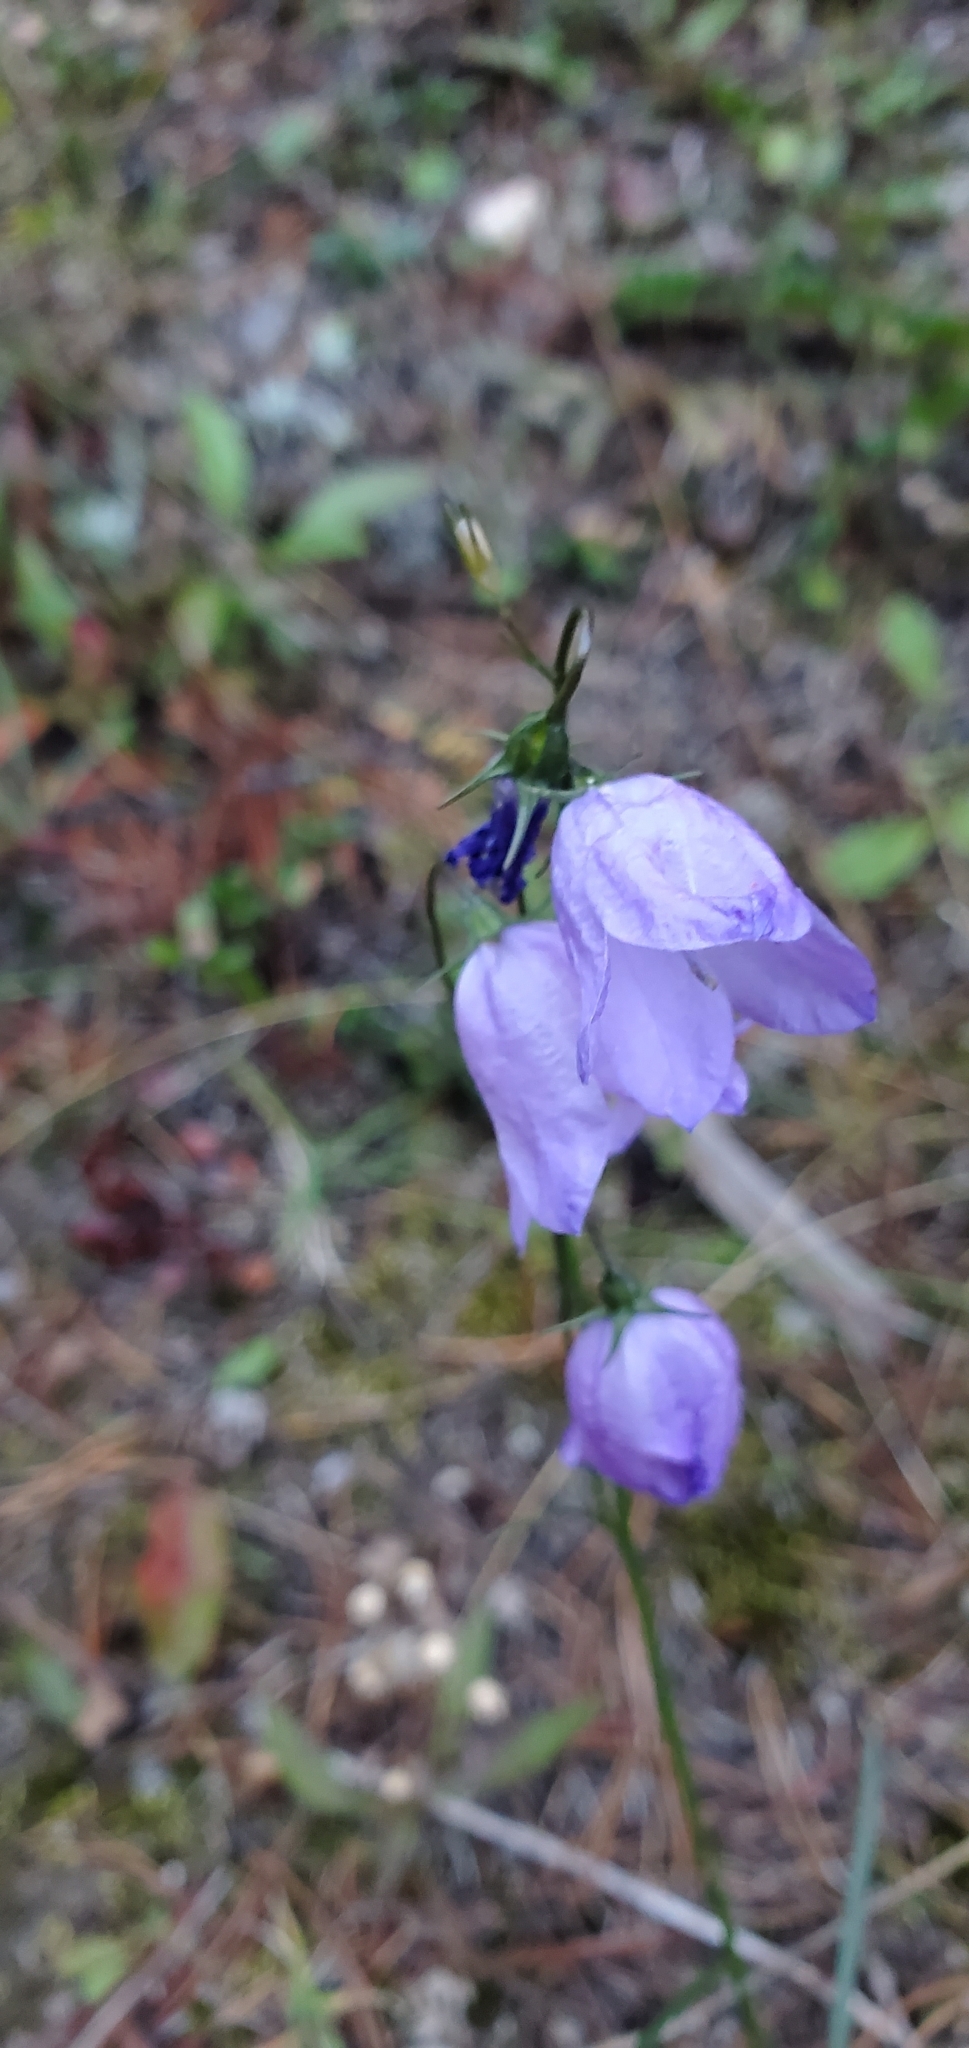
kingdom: Plantae
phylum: Tracheophyta
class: Magnoliopsida
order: Asterales
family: Campanulaceae
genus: Campanula
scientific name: Campanula alaskana
